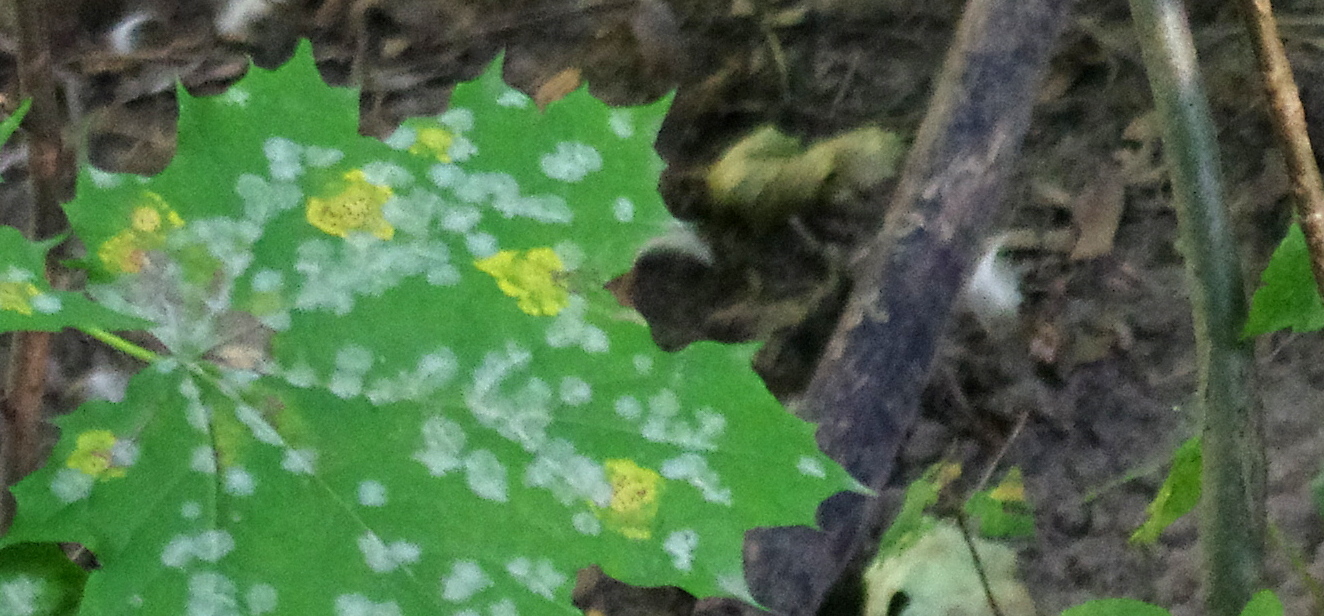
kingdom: Fungi
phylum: Ascomycota
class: Leotiomycetes
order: Helotiales
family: Erysiphaceae
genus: Sawadaea
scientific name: Sawadaea tulasnei
